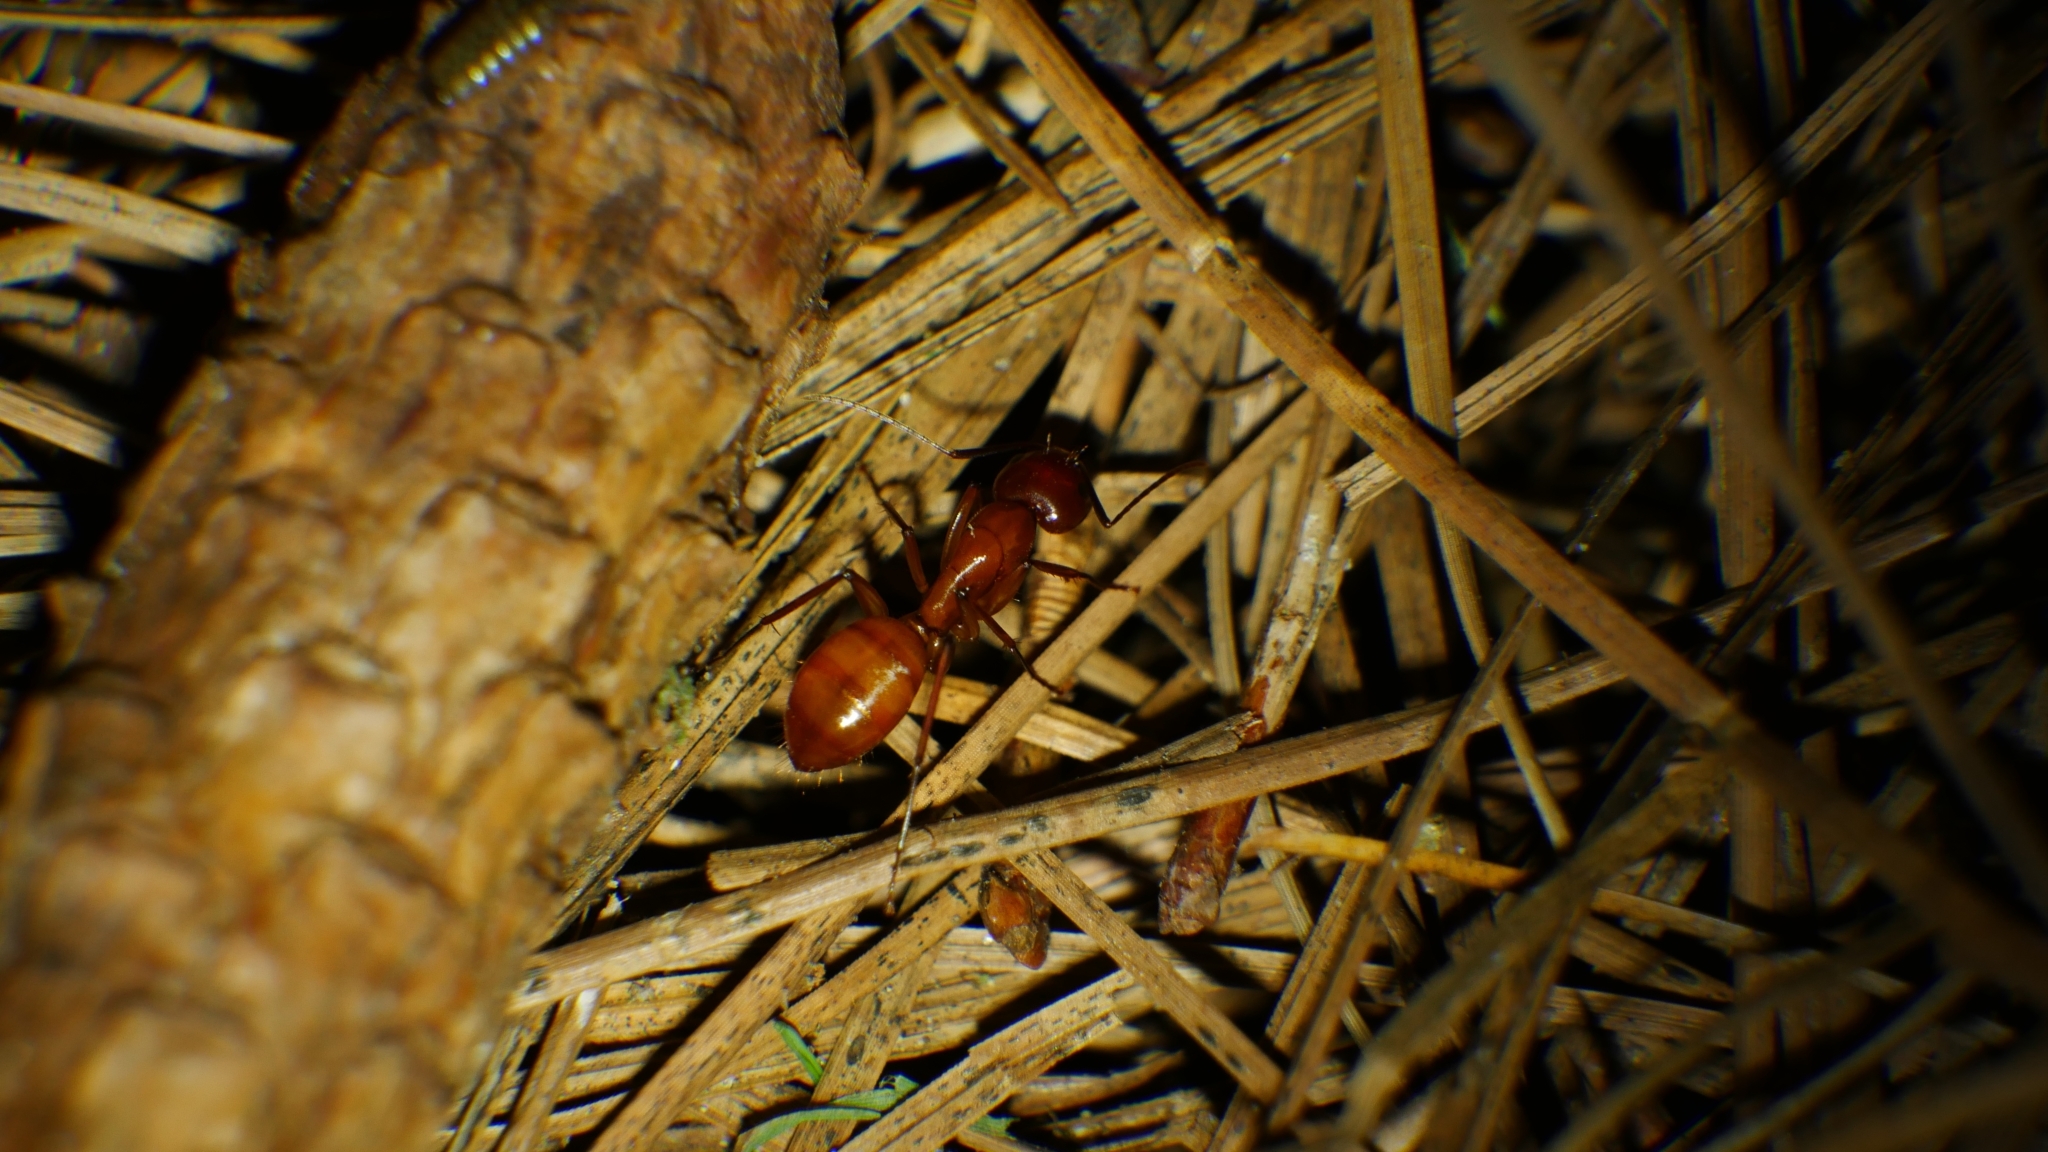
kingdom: Animalia
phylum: Arthropoda
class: Insecta
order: Hymenoptera
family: Formicidae
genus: Camponotus
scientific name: Camponotus castaneus
